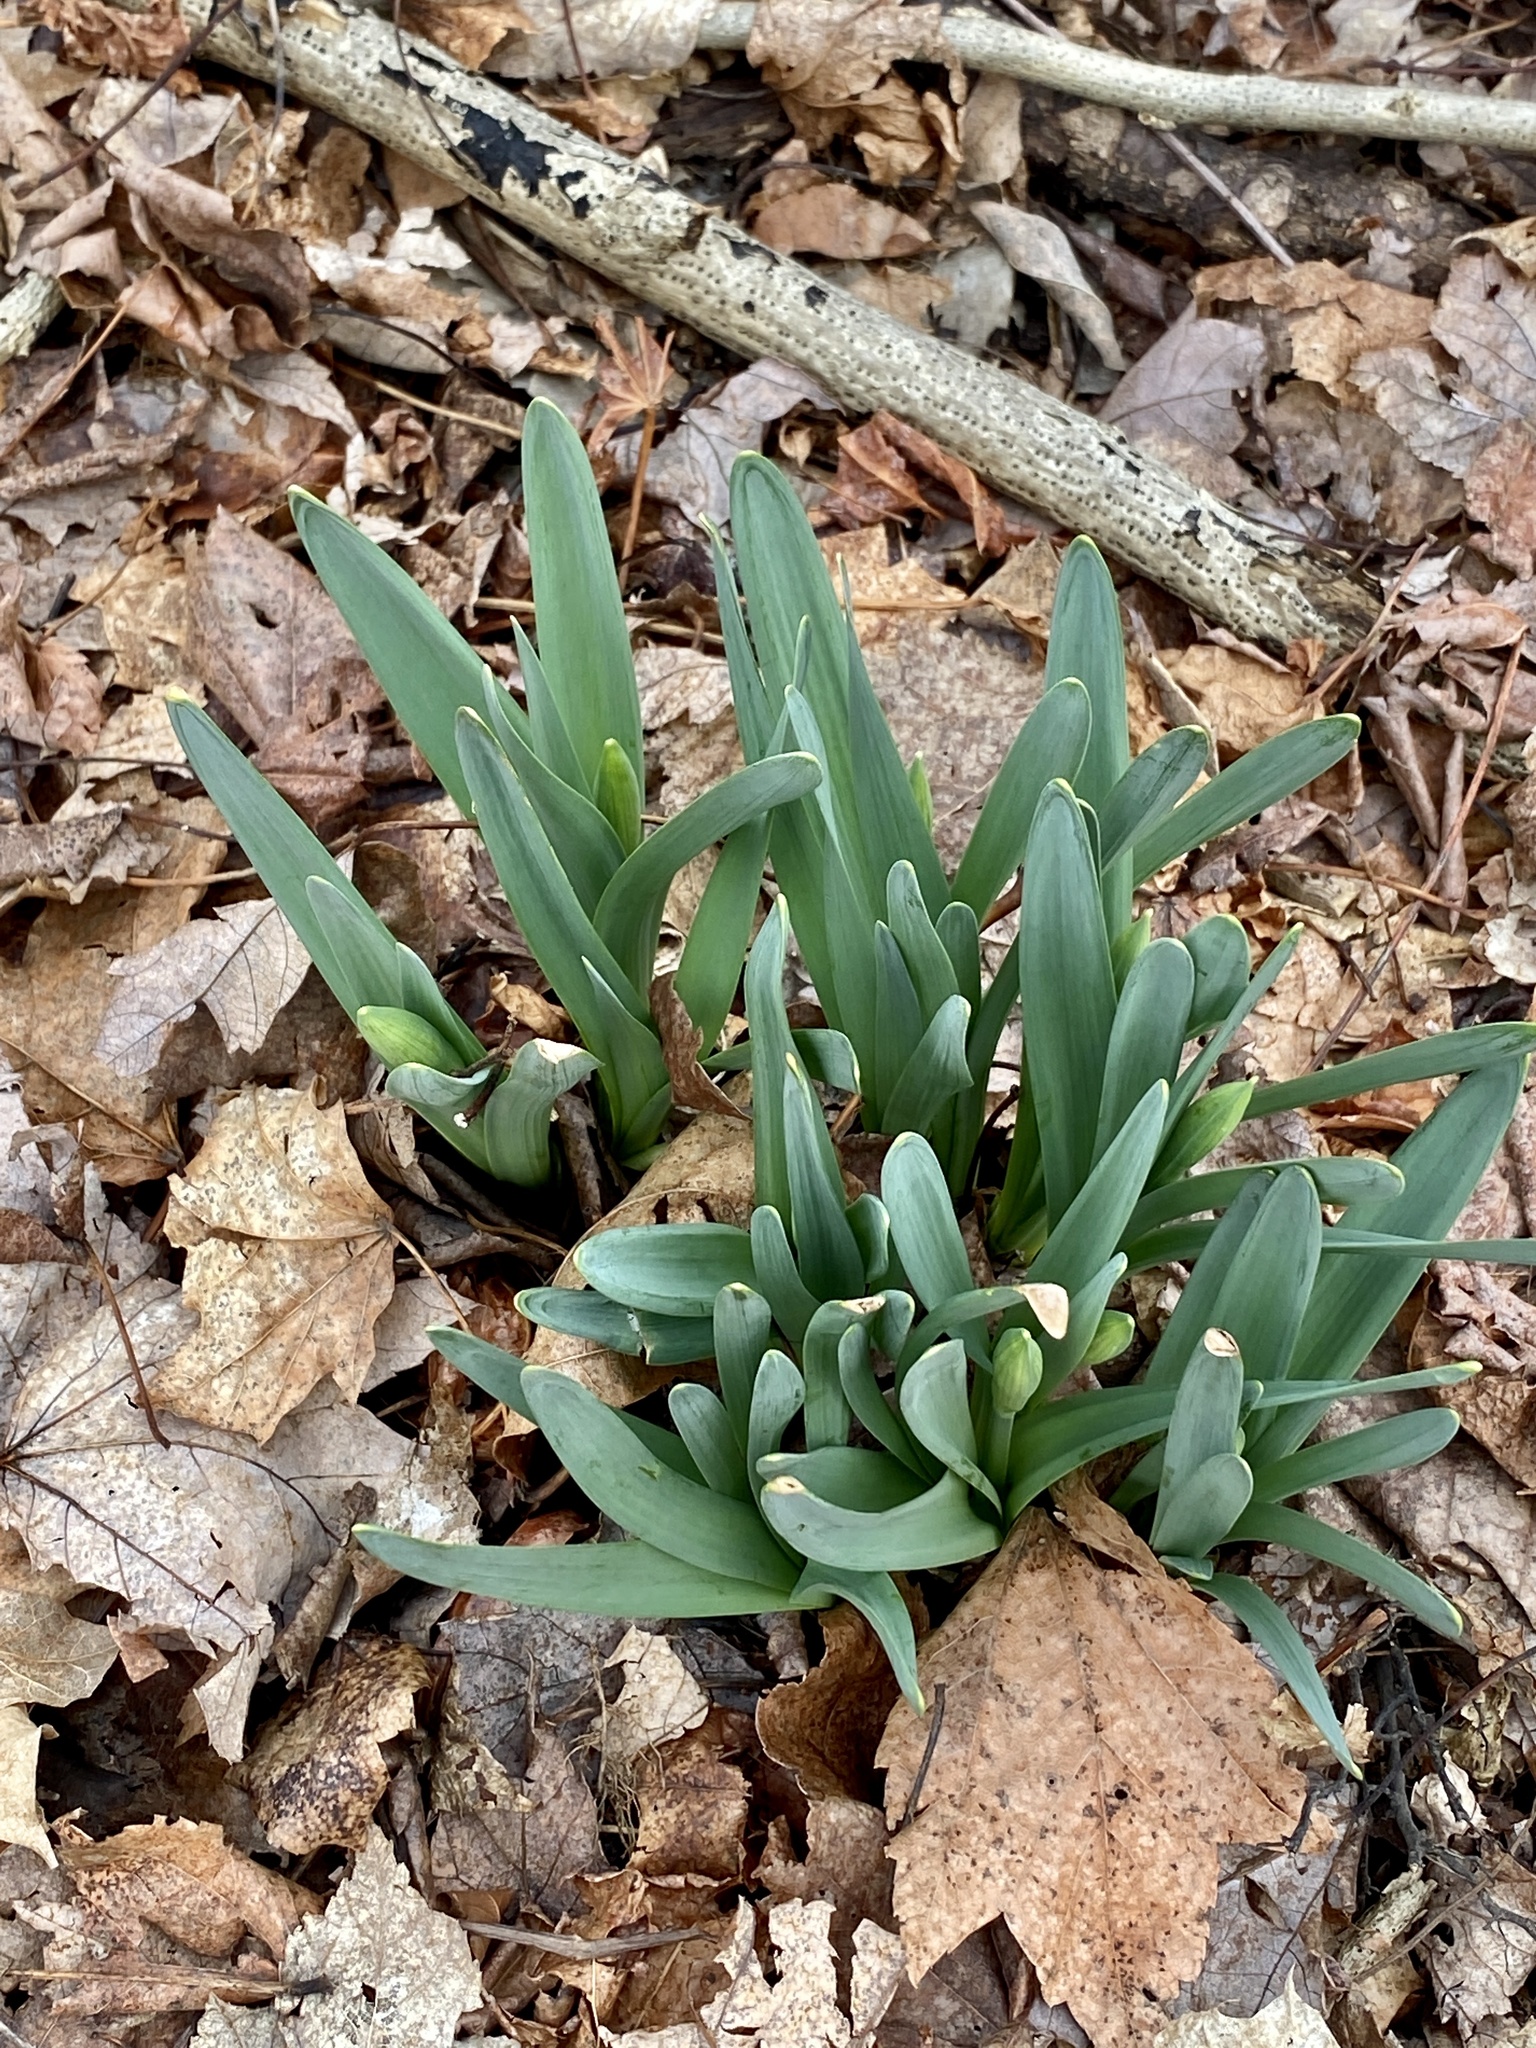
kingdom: Plantae
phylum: Tracheophyta
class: Liliopsida
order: Asparagales
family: Amaryllidaceae
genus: Narcissus
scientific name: Narcissus
